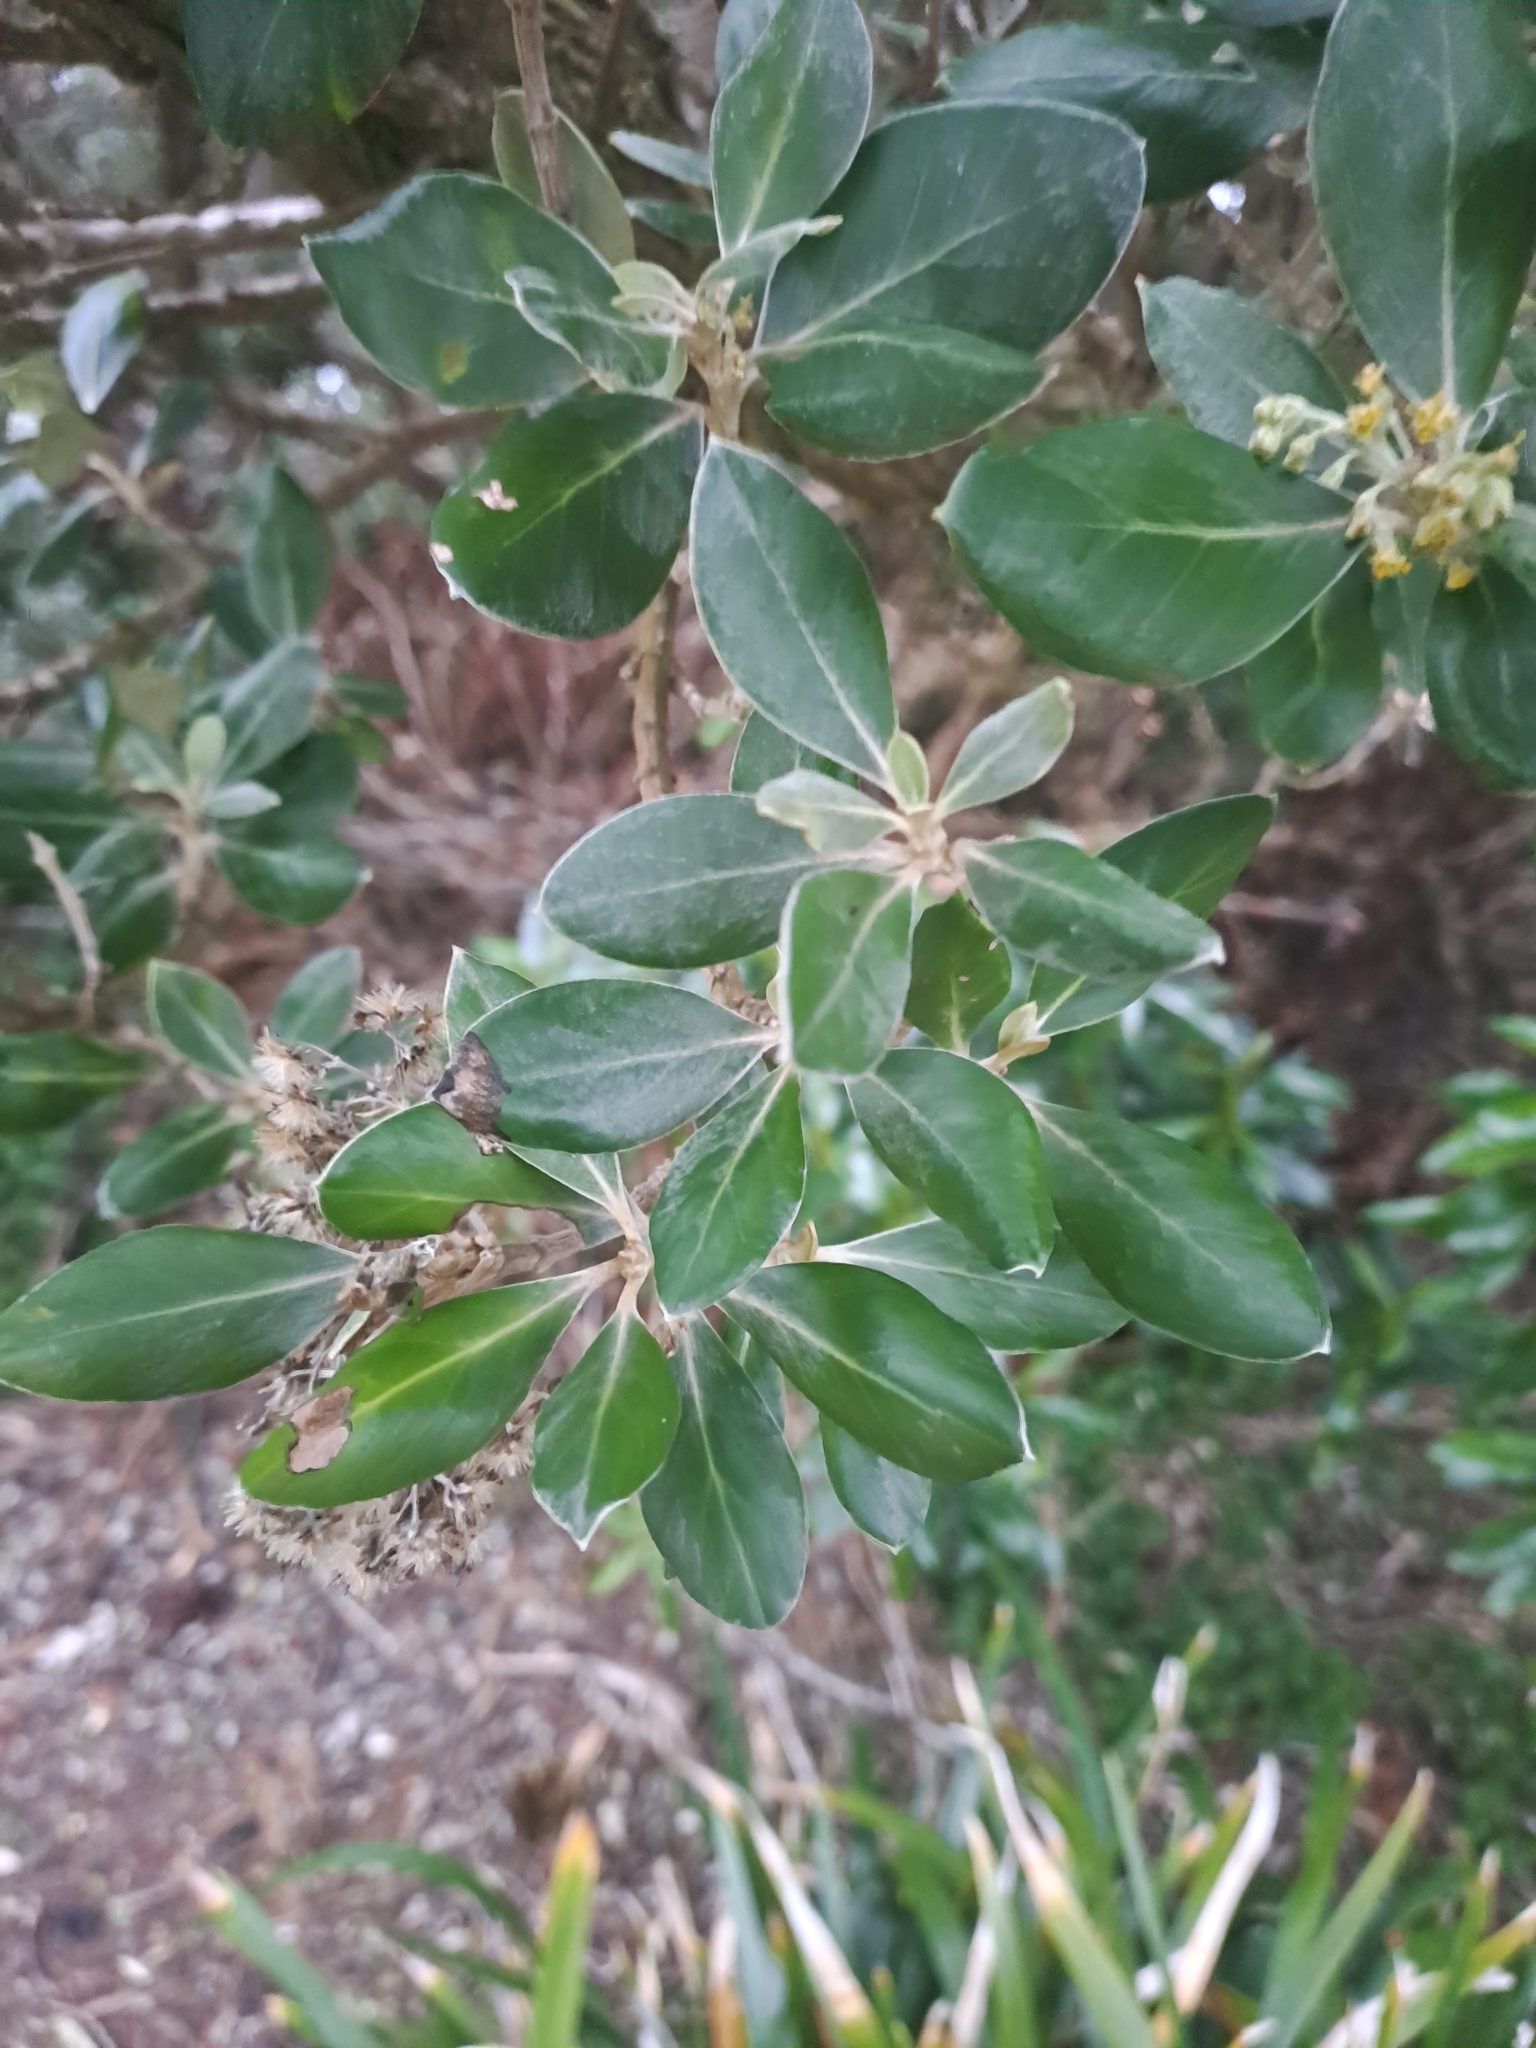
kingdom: Plantae
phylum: Tracheophyta
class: Magnoliopsida
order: Asterales
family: Asteraceae
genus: Olearia
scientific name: Olearia traversiorum
